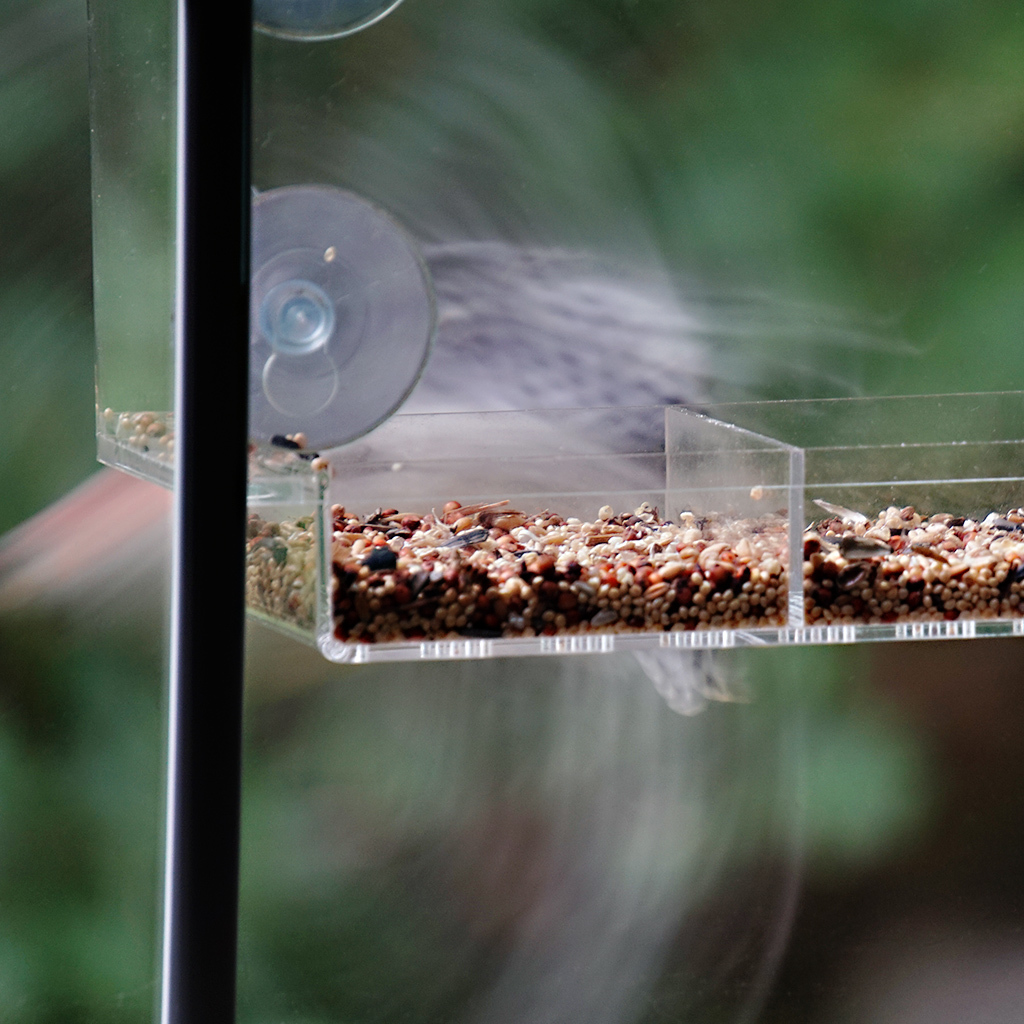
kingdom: Animalia
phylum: Chordata
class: Aves
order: Piciformes
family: Picidae
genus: Melanerpes
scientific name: Melanerpes carolinus
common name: Red-bellied woodpecker
